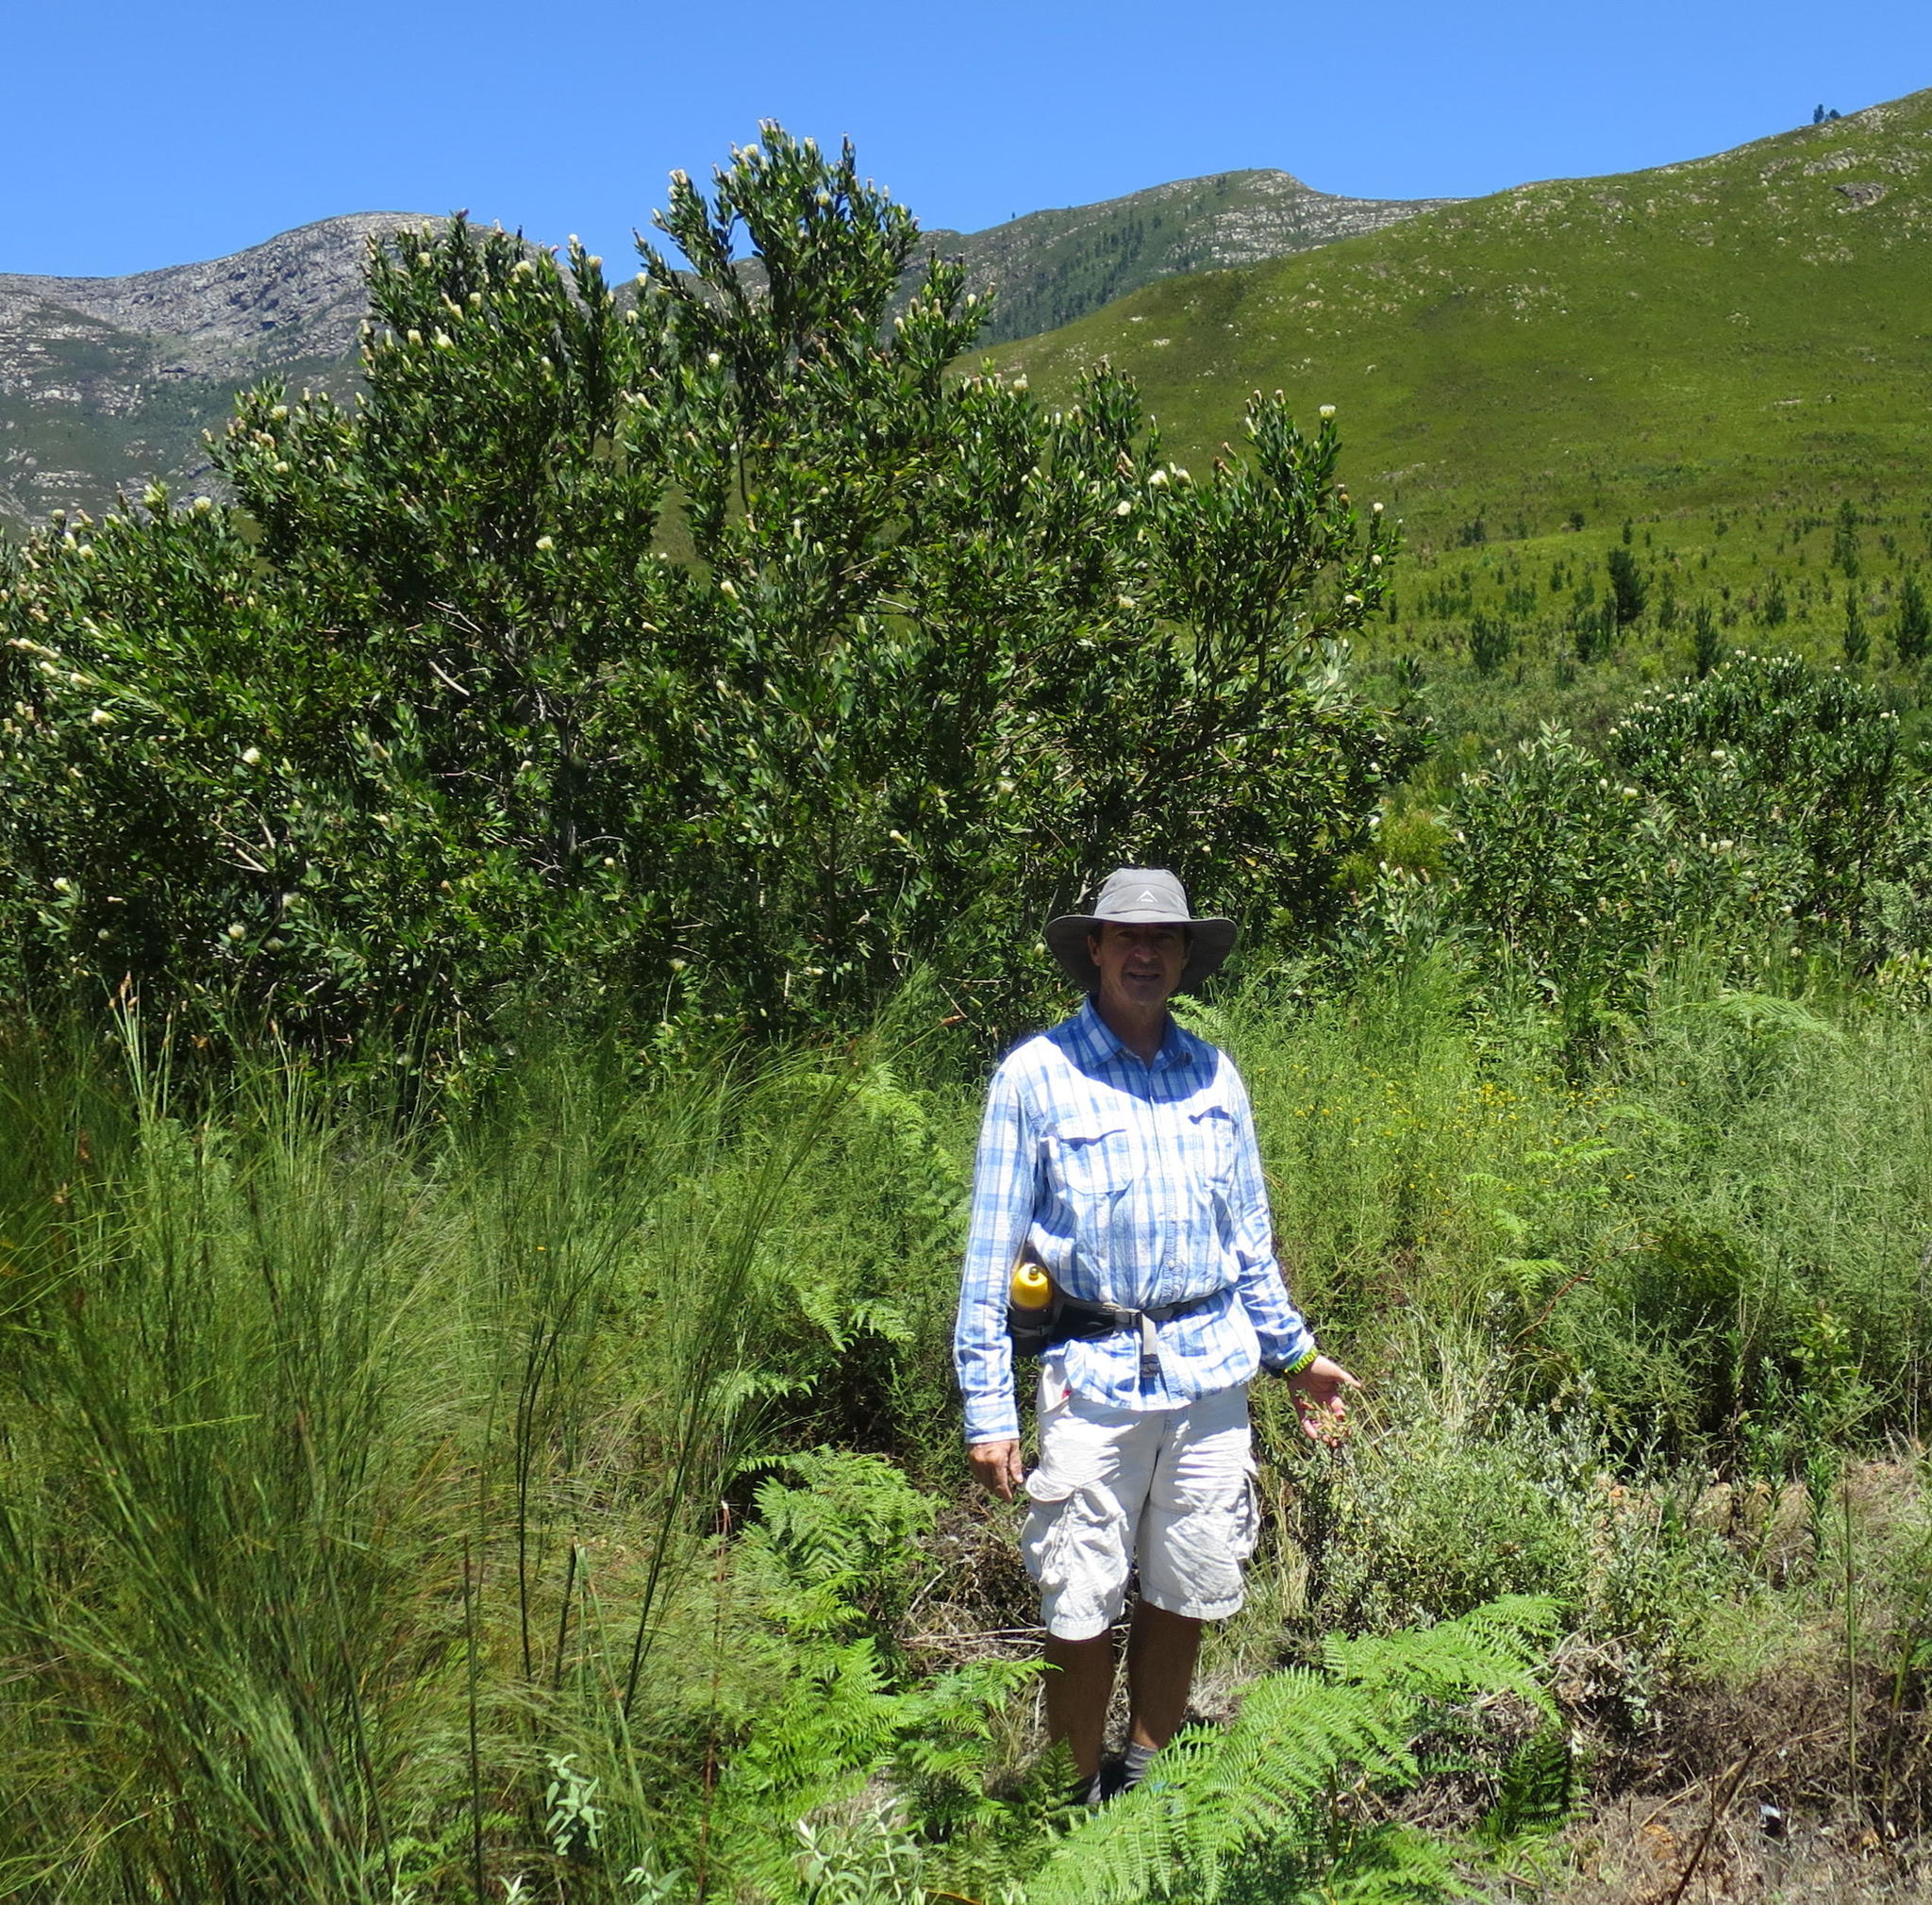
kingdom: Plantae
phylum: Tracheophyta
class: Magnoliopsida
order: Asterales
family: Asteraceae
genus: Helichrysum
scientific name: Helichrysum tenuiculum
